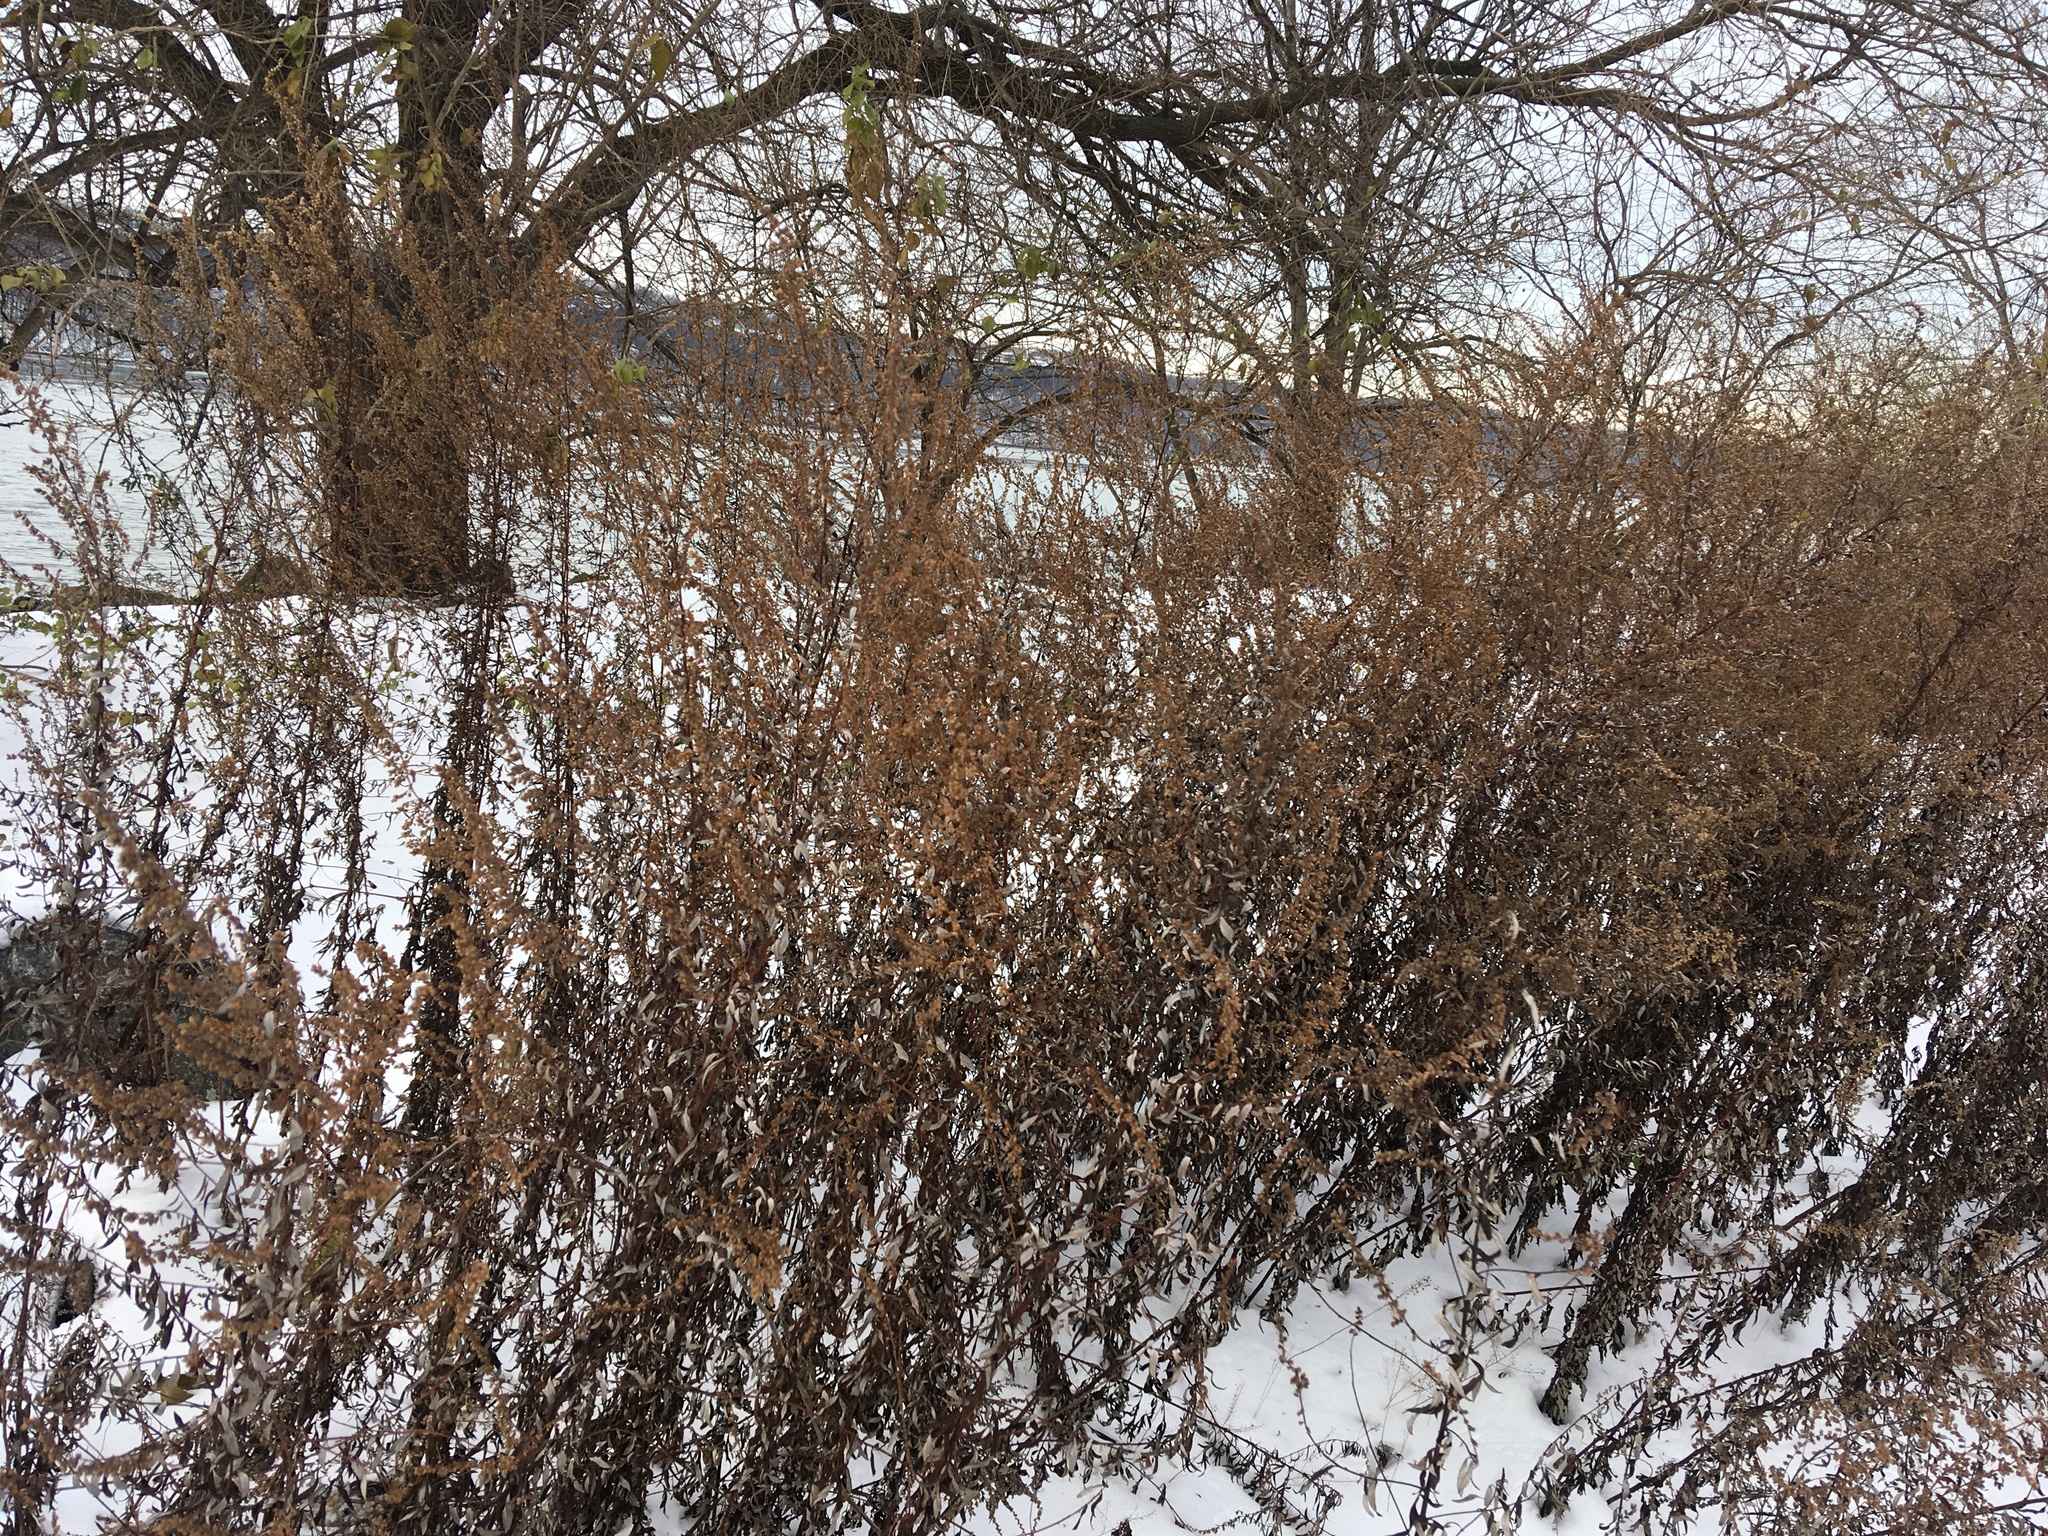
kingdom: Plantae
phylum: Tracheophyta
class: Magnoliopsida
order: Asterales
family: Asteraceae
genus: Artemisia
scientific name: Artemisia vulgaris
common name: Mugwort
